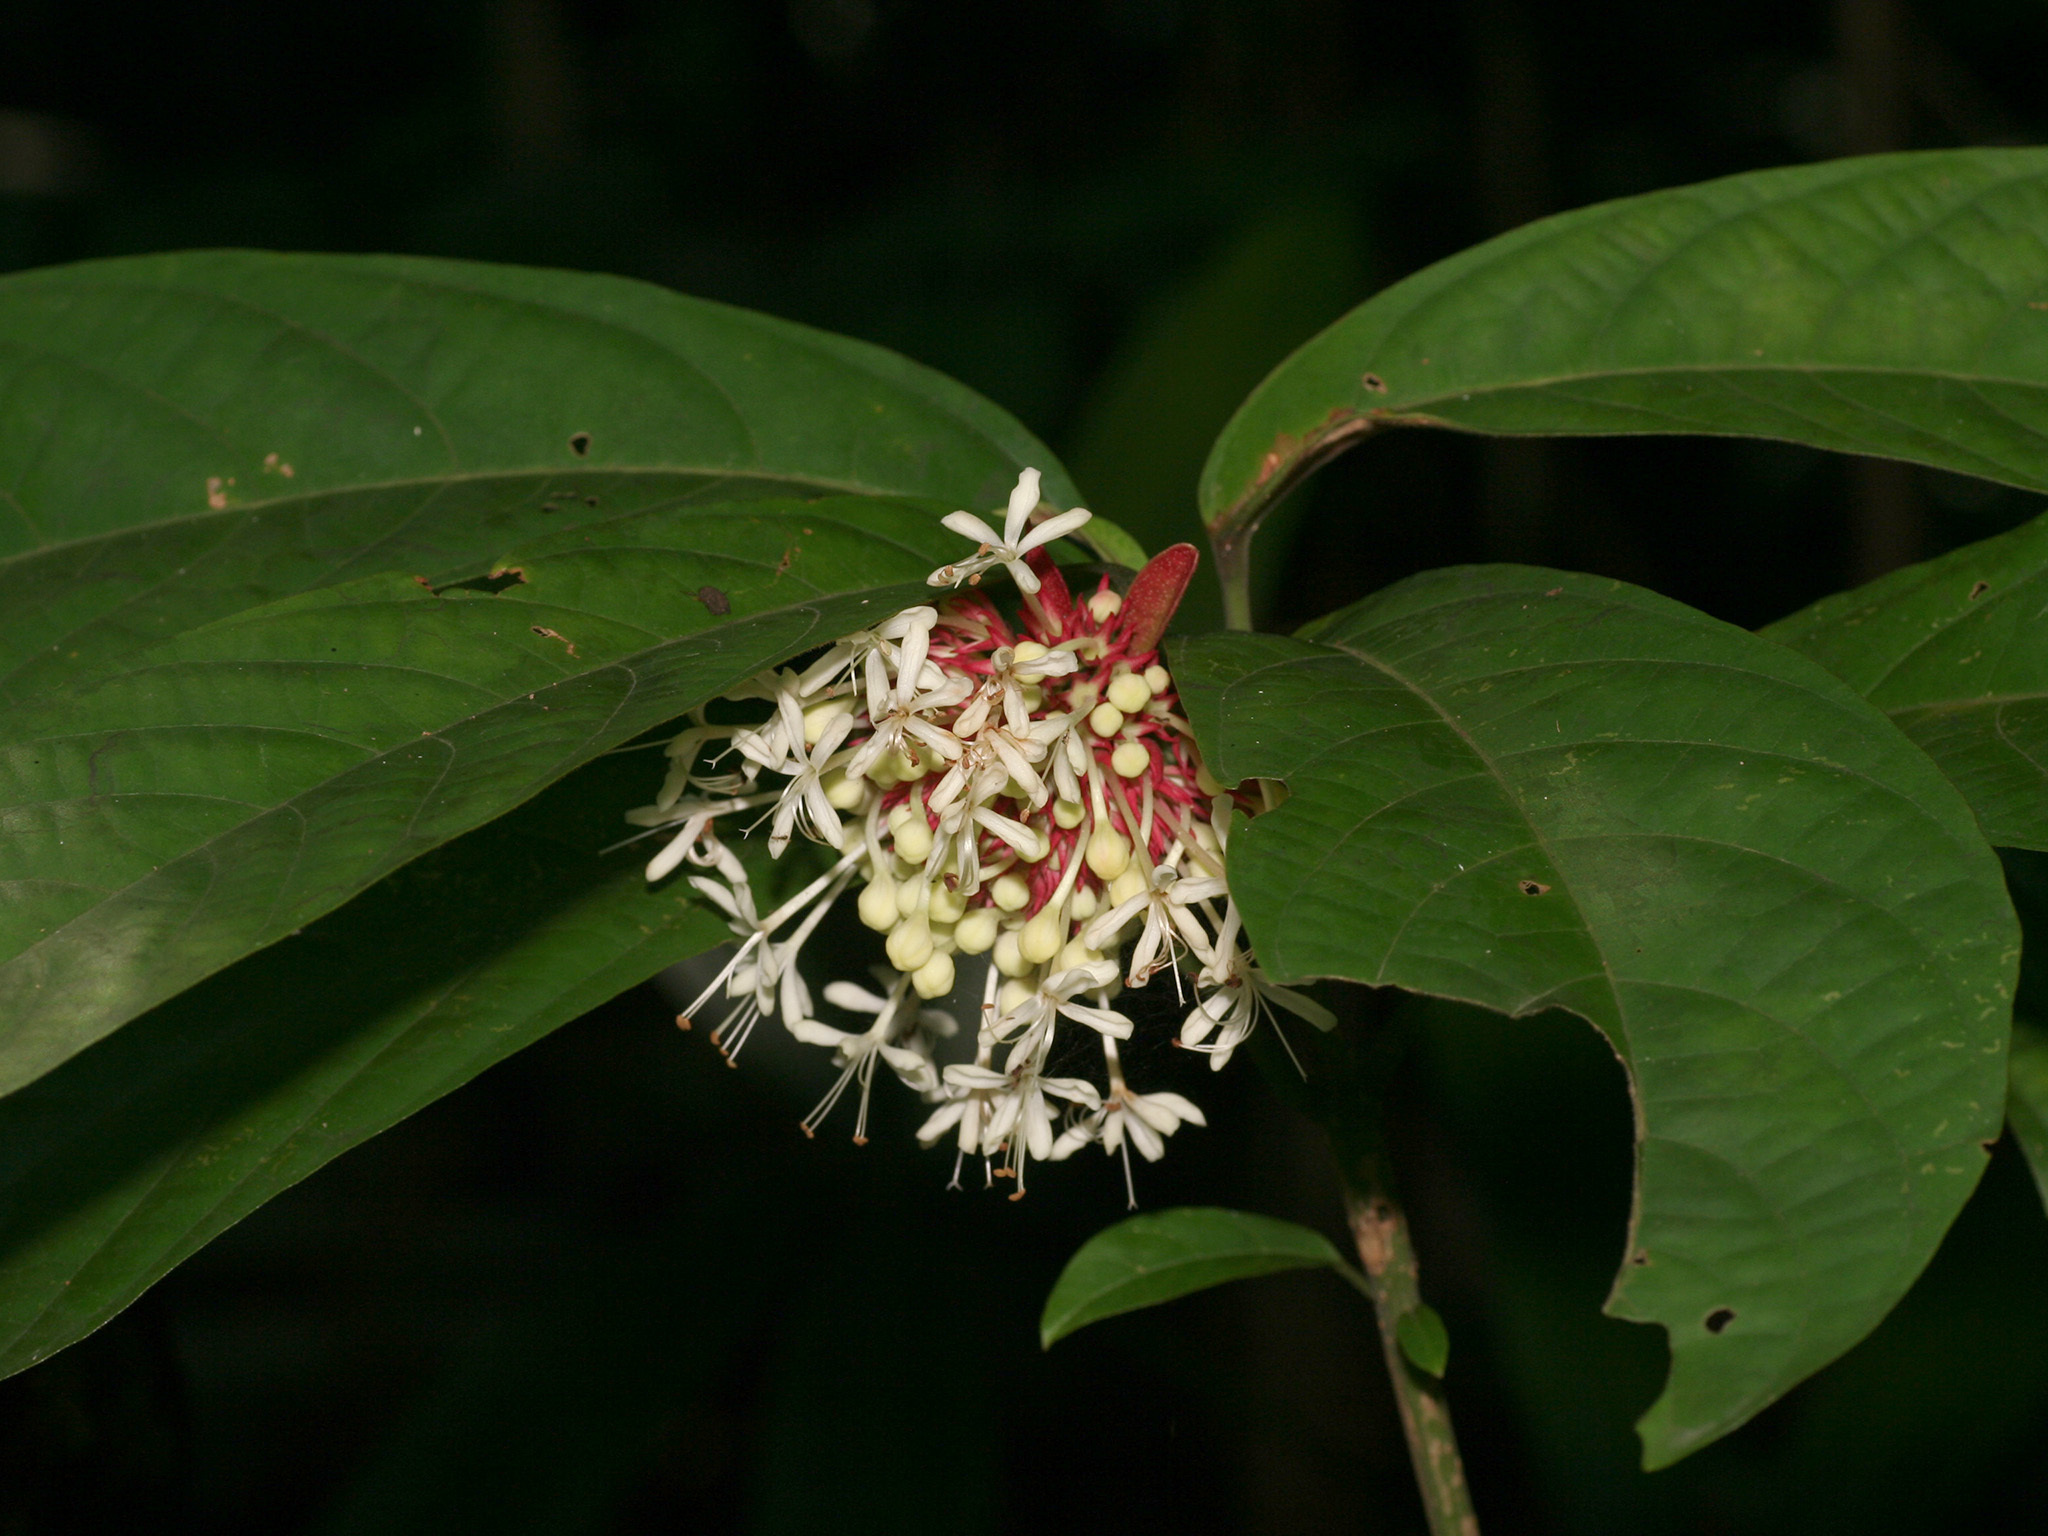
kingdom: Plantae
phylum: Tracheophyta
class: Magnoliopsida
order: Lamiales
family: Lamiaceae
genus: Clerodendrum
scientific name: Clerodendrum deflexum
